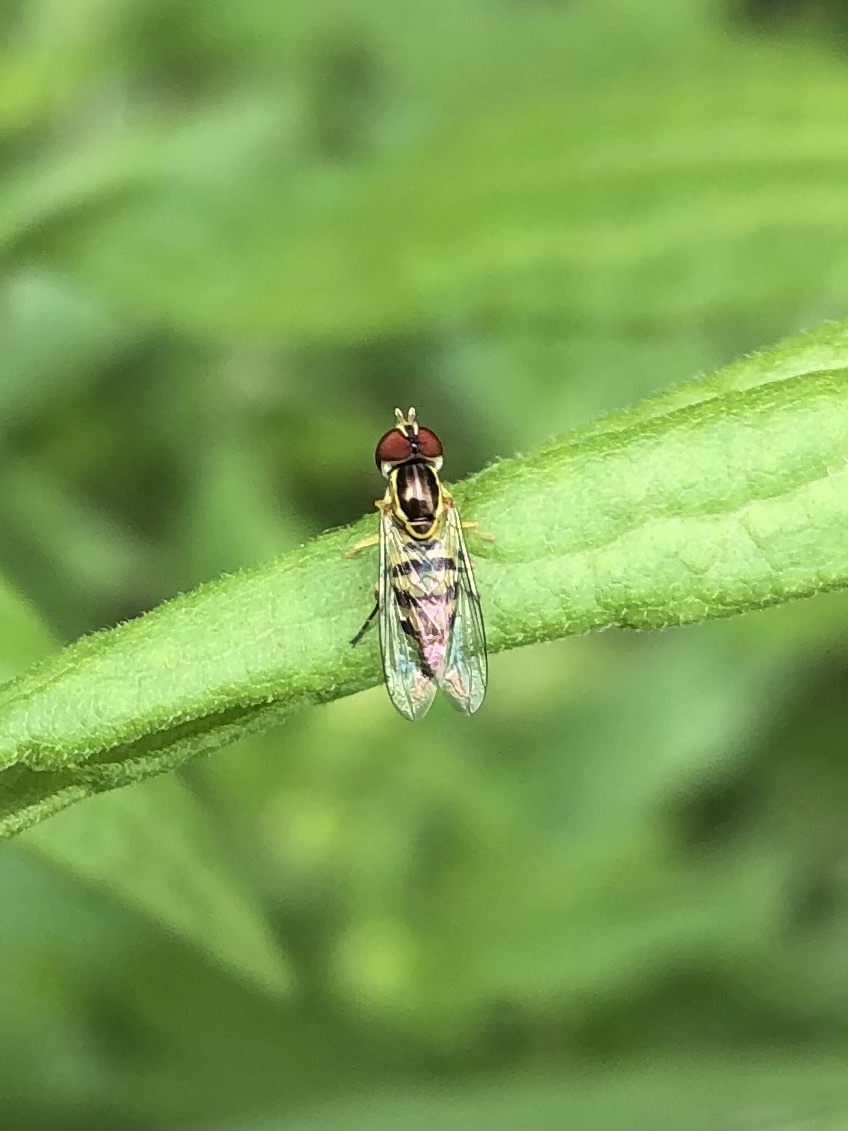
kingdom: Animalia
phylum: Arthropoda
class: Insecta
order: Diptera
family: Syrphidae
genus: Toxomerus
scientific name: Toxomerus geminatus
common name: Eastern calligrapher
